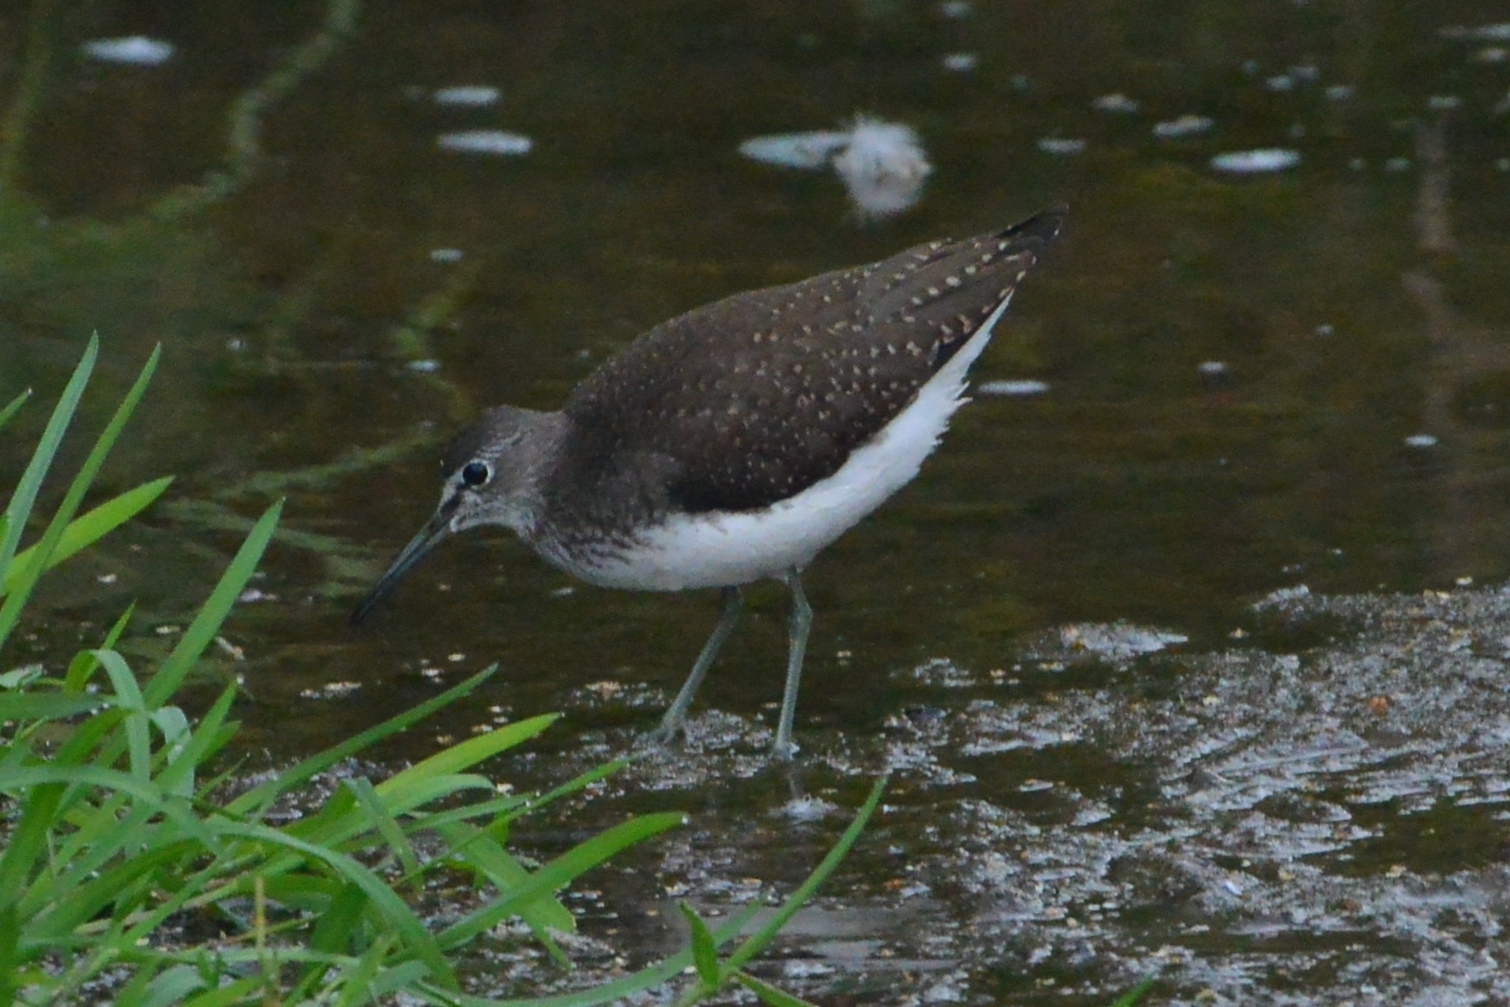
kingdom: Animalia
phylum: Chordata
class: Aves
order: Charadriiformes
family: Scolopacidae
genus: Tringa
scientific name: Tringa ochropus
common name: Green sandpiper
